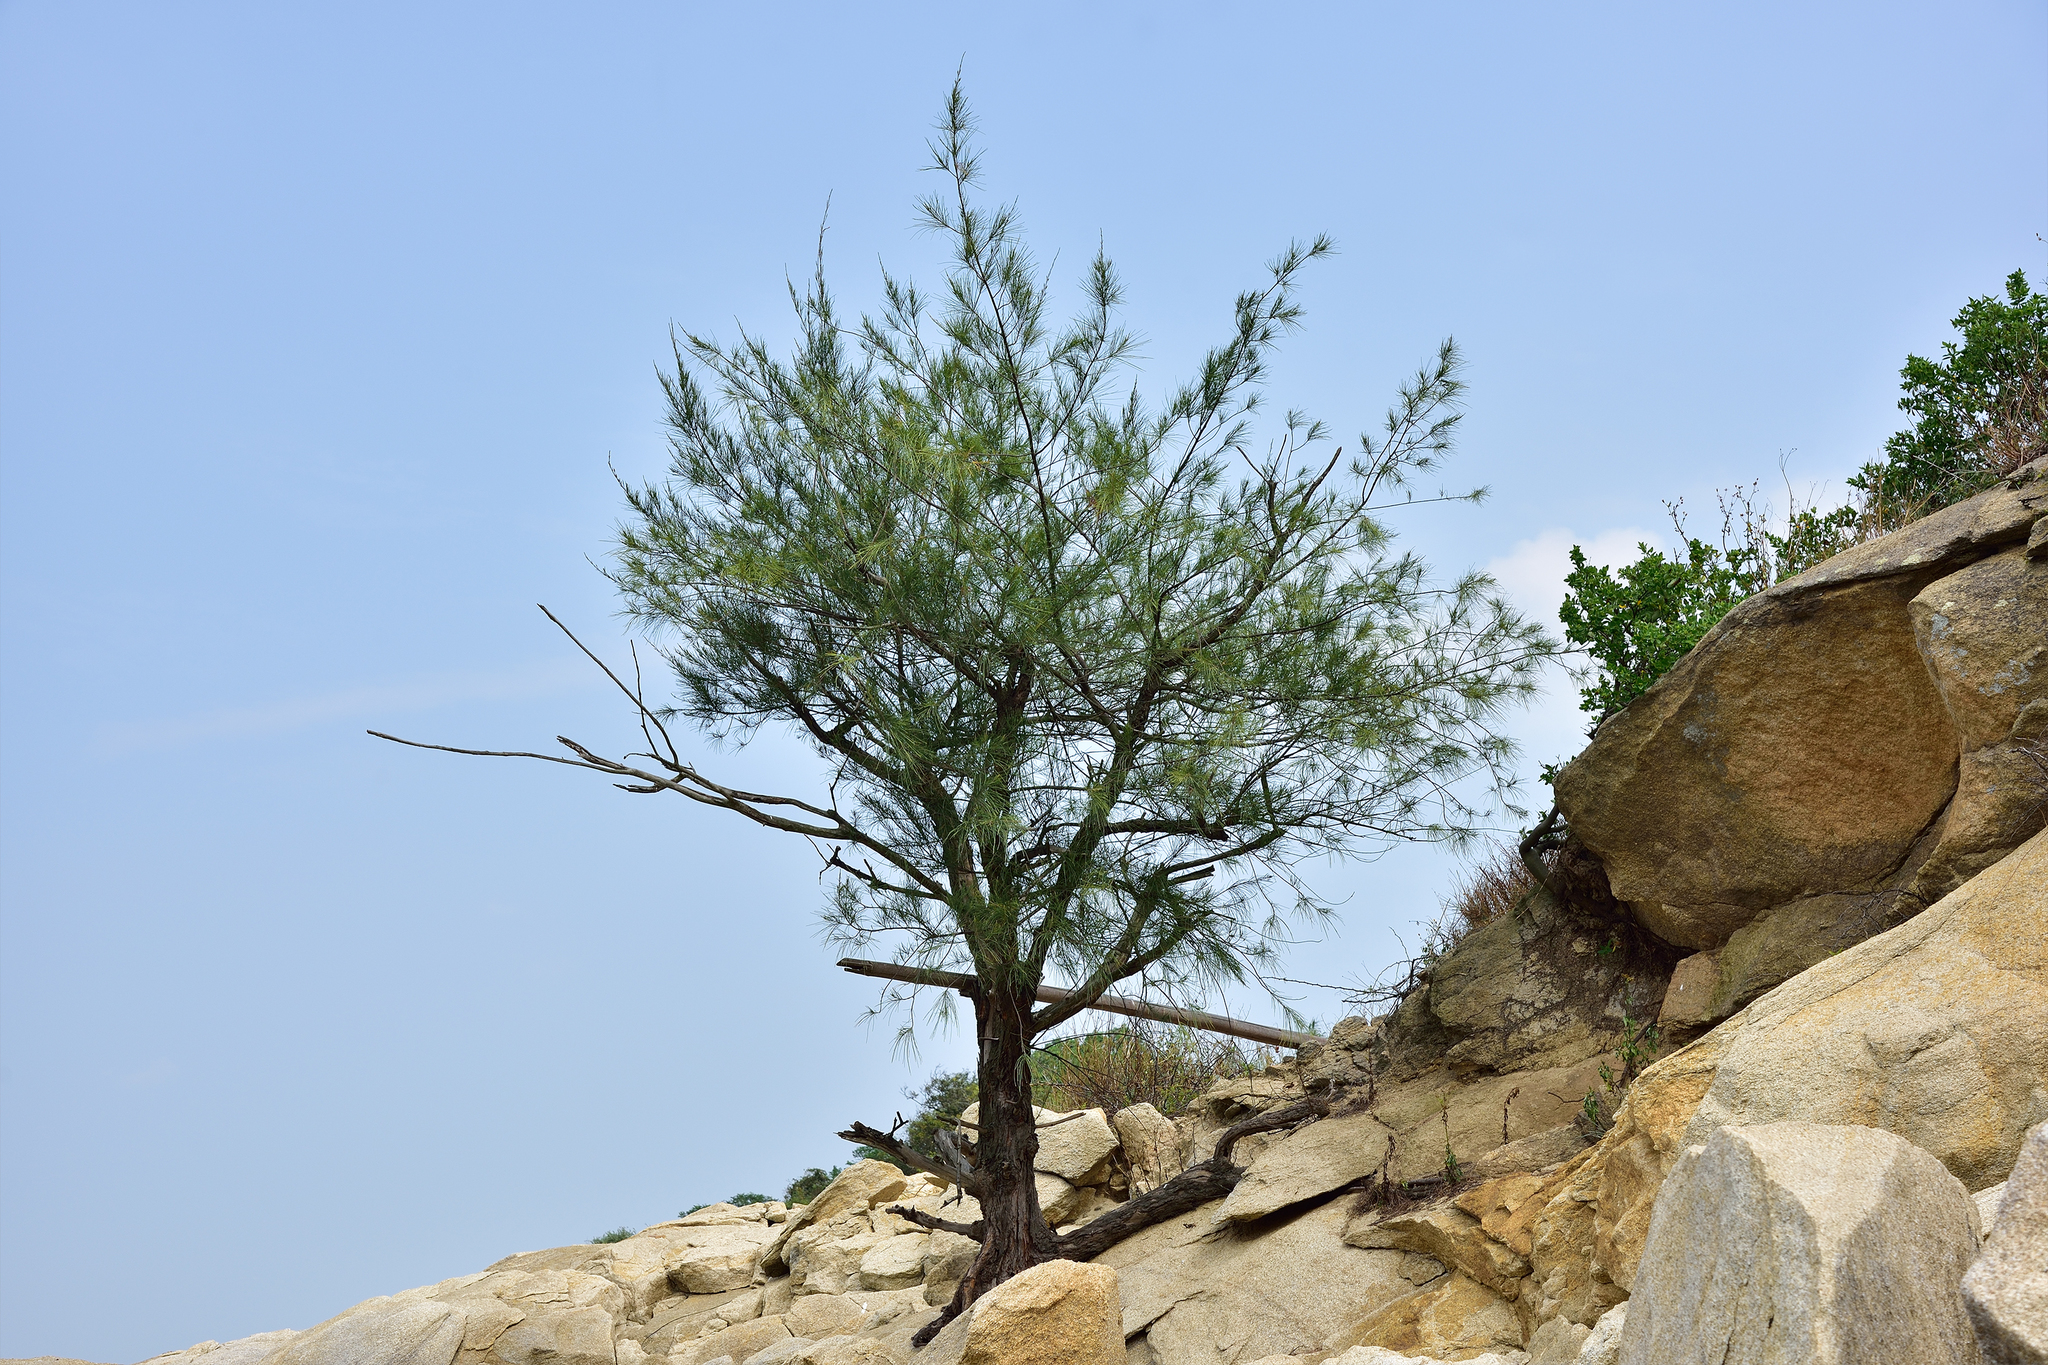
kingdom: Plantae
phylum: Tracheophyta
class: Magnoliopsida
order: Fagales
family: Casuarinaceae
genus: Casuarina
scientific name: Casuarina equisetifolia
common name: Beach sheoak
